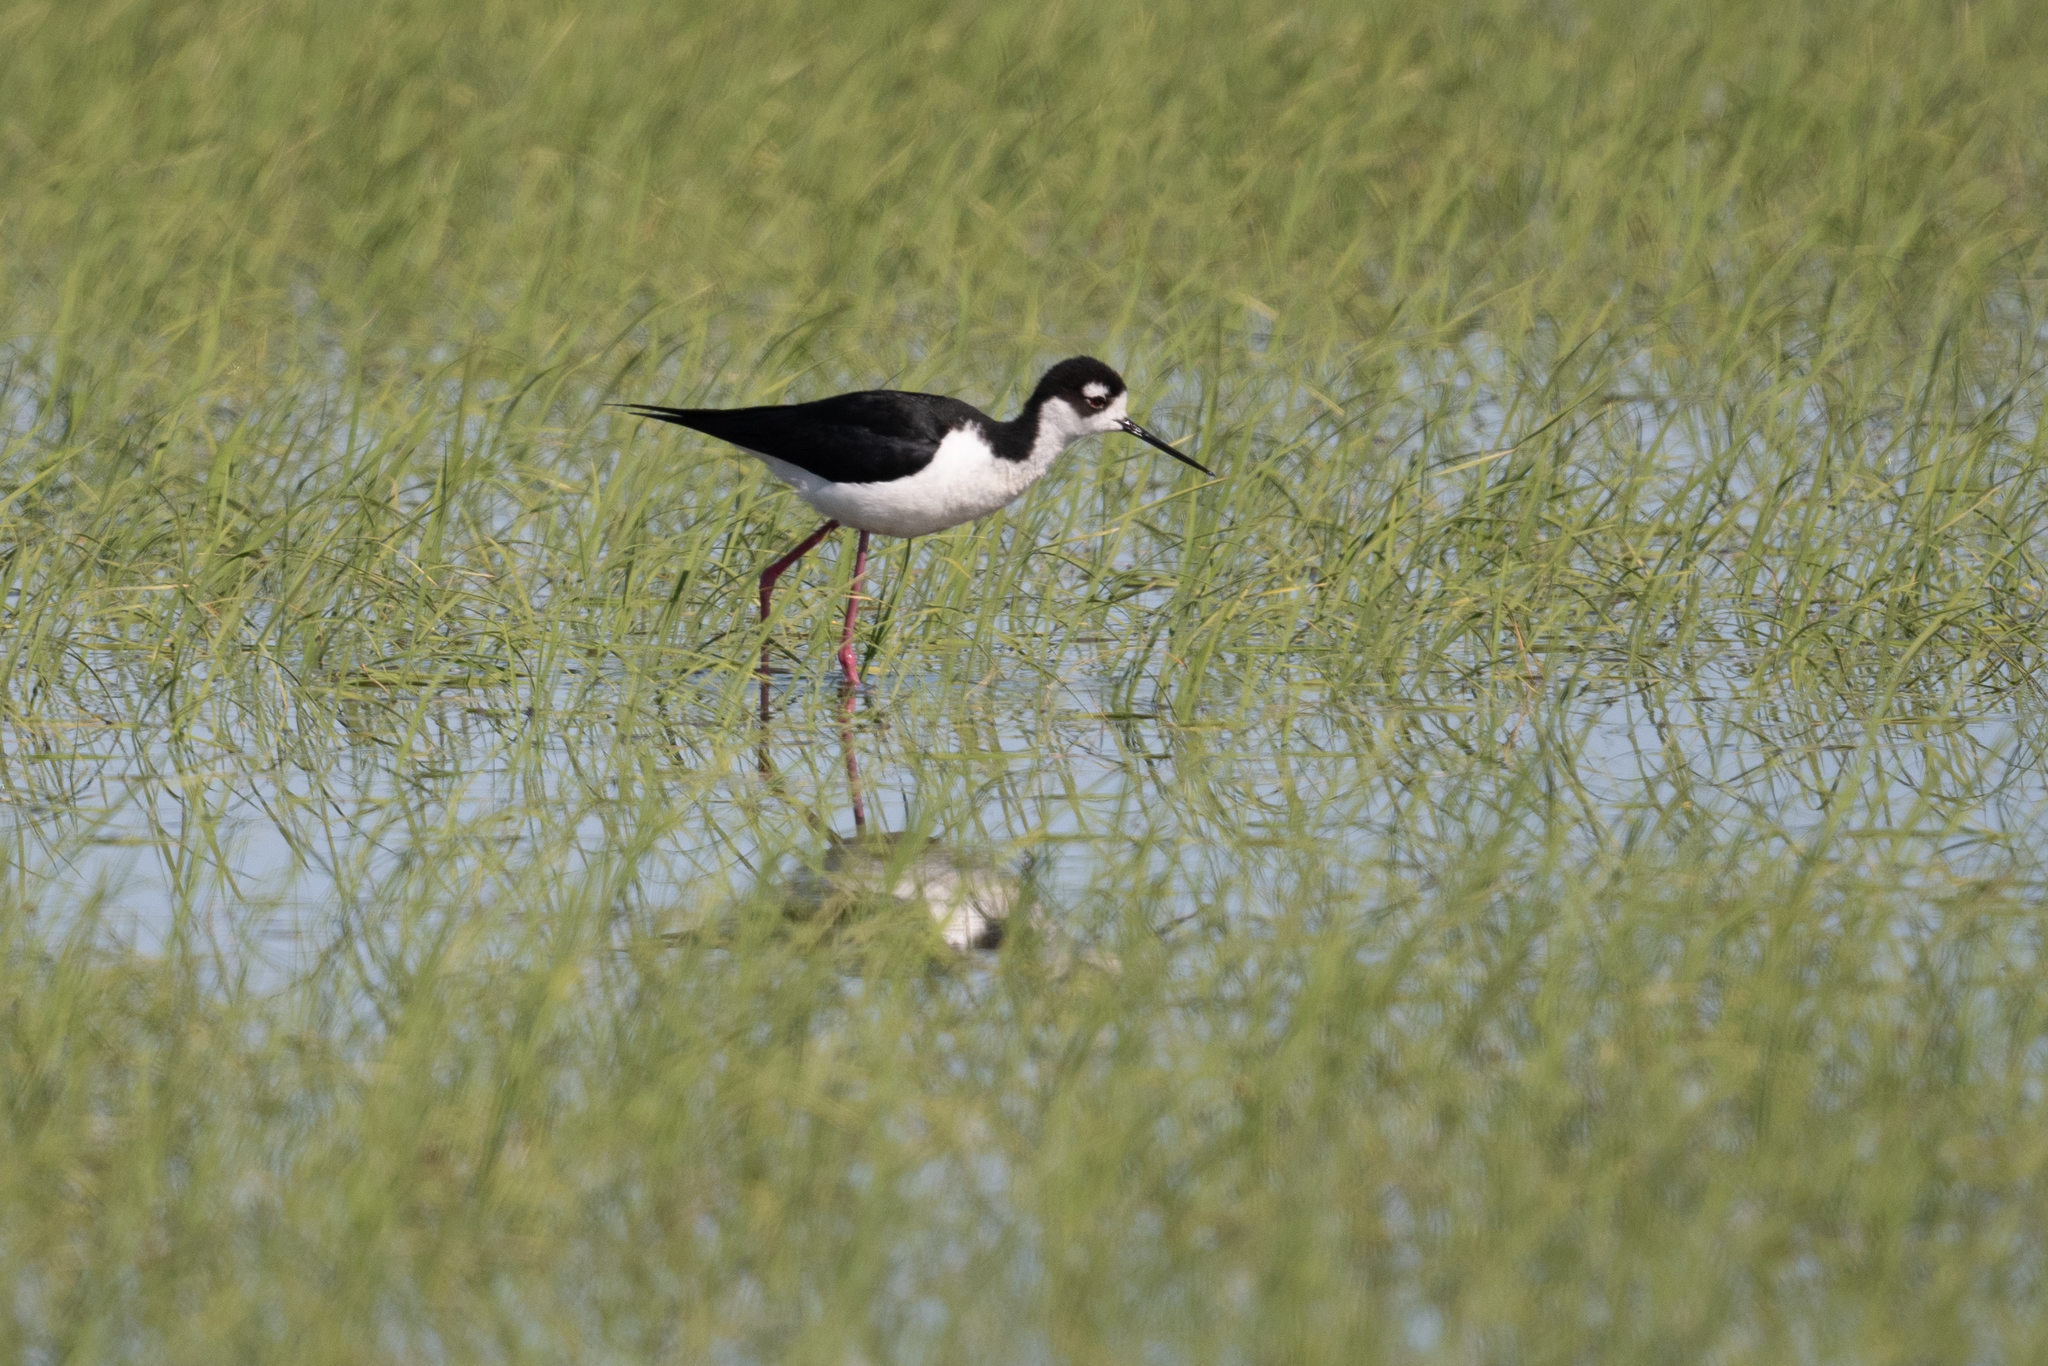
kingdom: Animalia
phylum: Chordata
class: Aves
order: Charadriiformes
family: Recurvirostridae
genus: Himantopus
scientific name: Himantopus mexicanus
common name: Black-necked stilt
